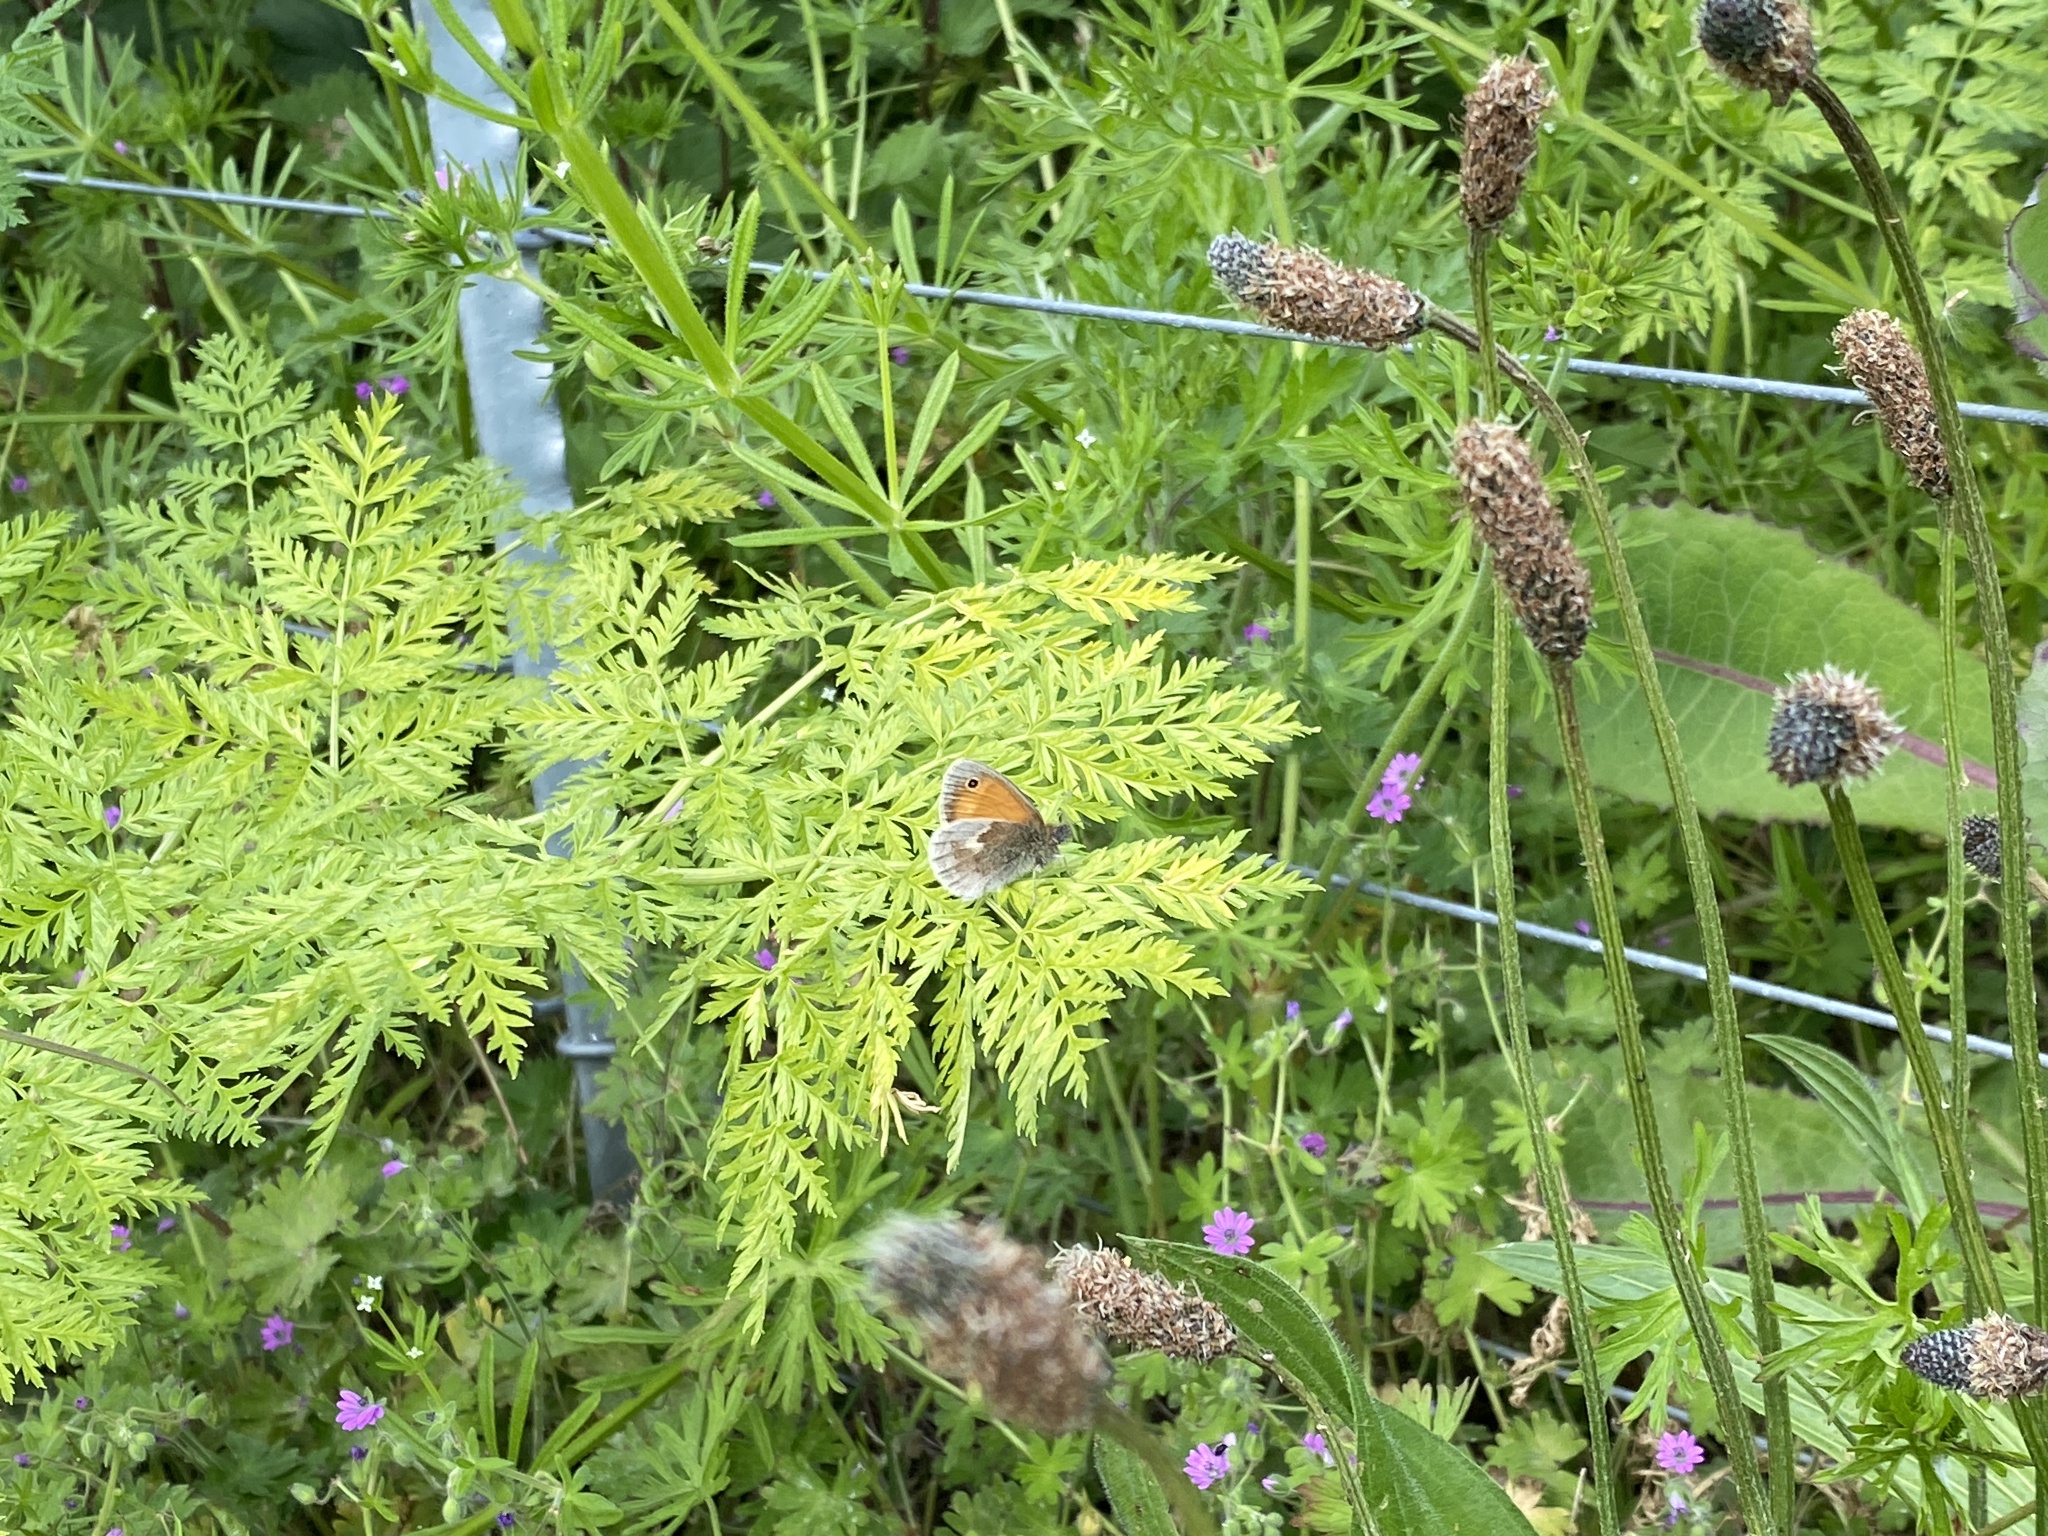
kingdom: Animalia
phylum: Arthropoda
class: Insecta
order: Lepidoptera
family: Nymphalidae
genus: Coenonympha
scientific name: Coenonympha pamphilus
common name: Small heath
